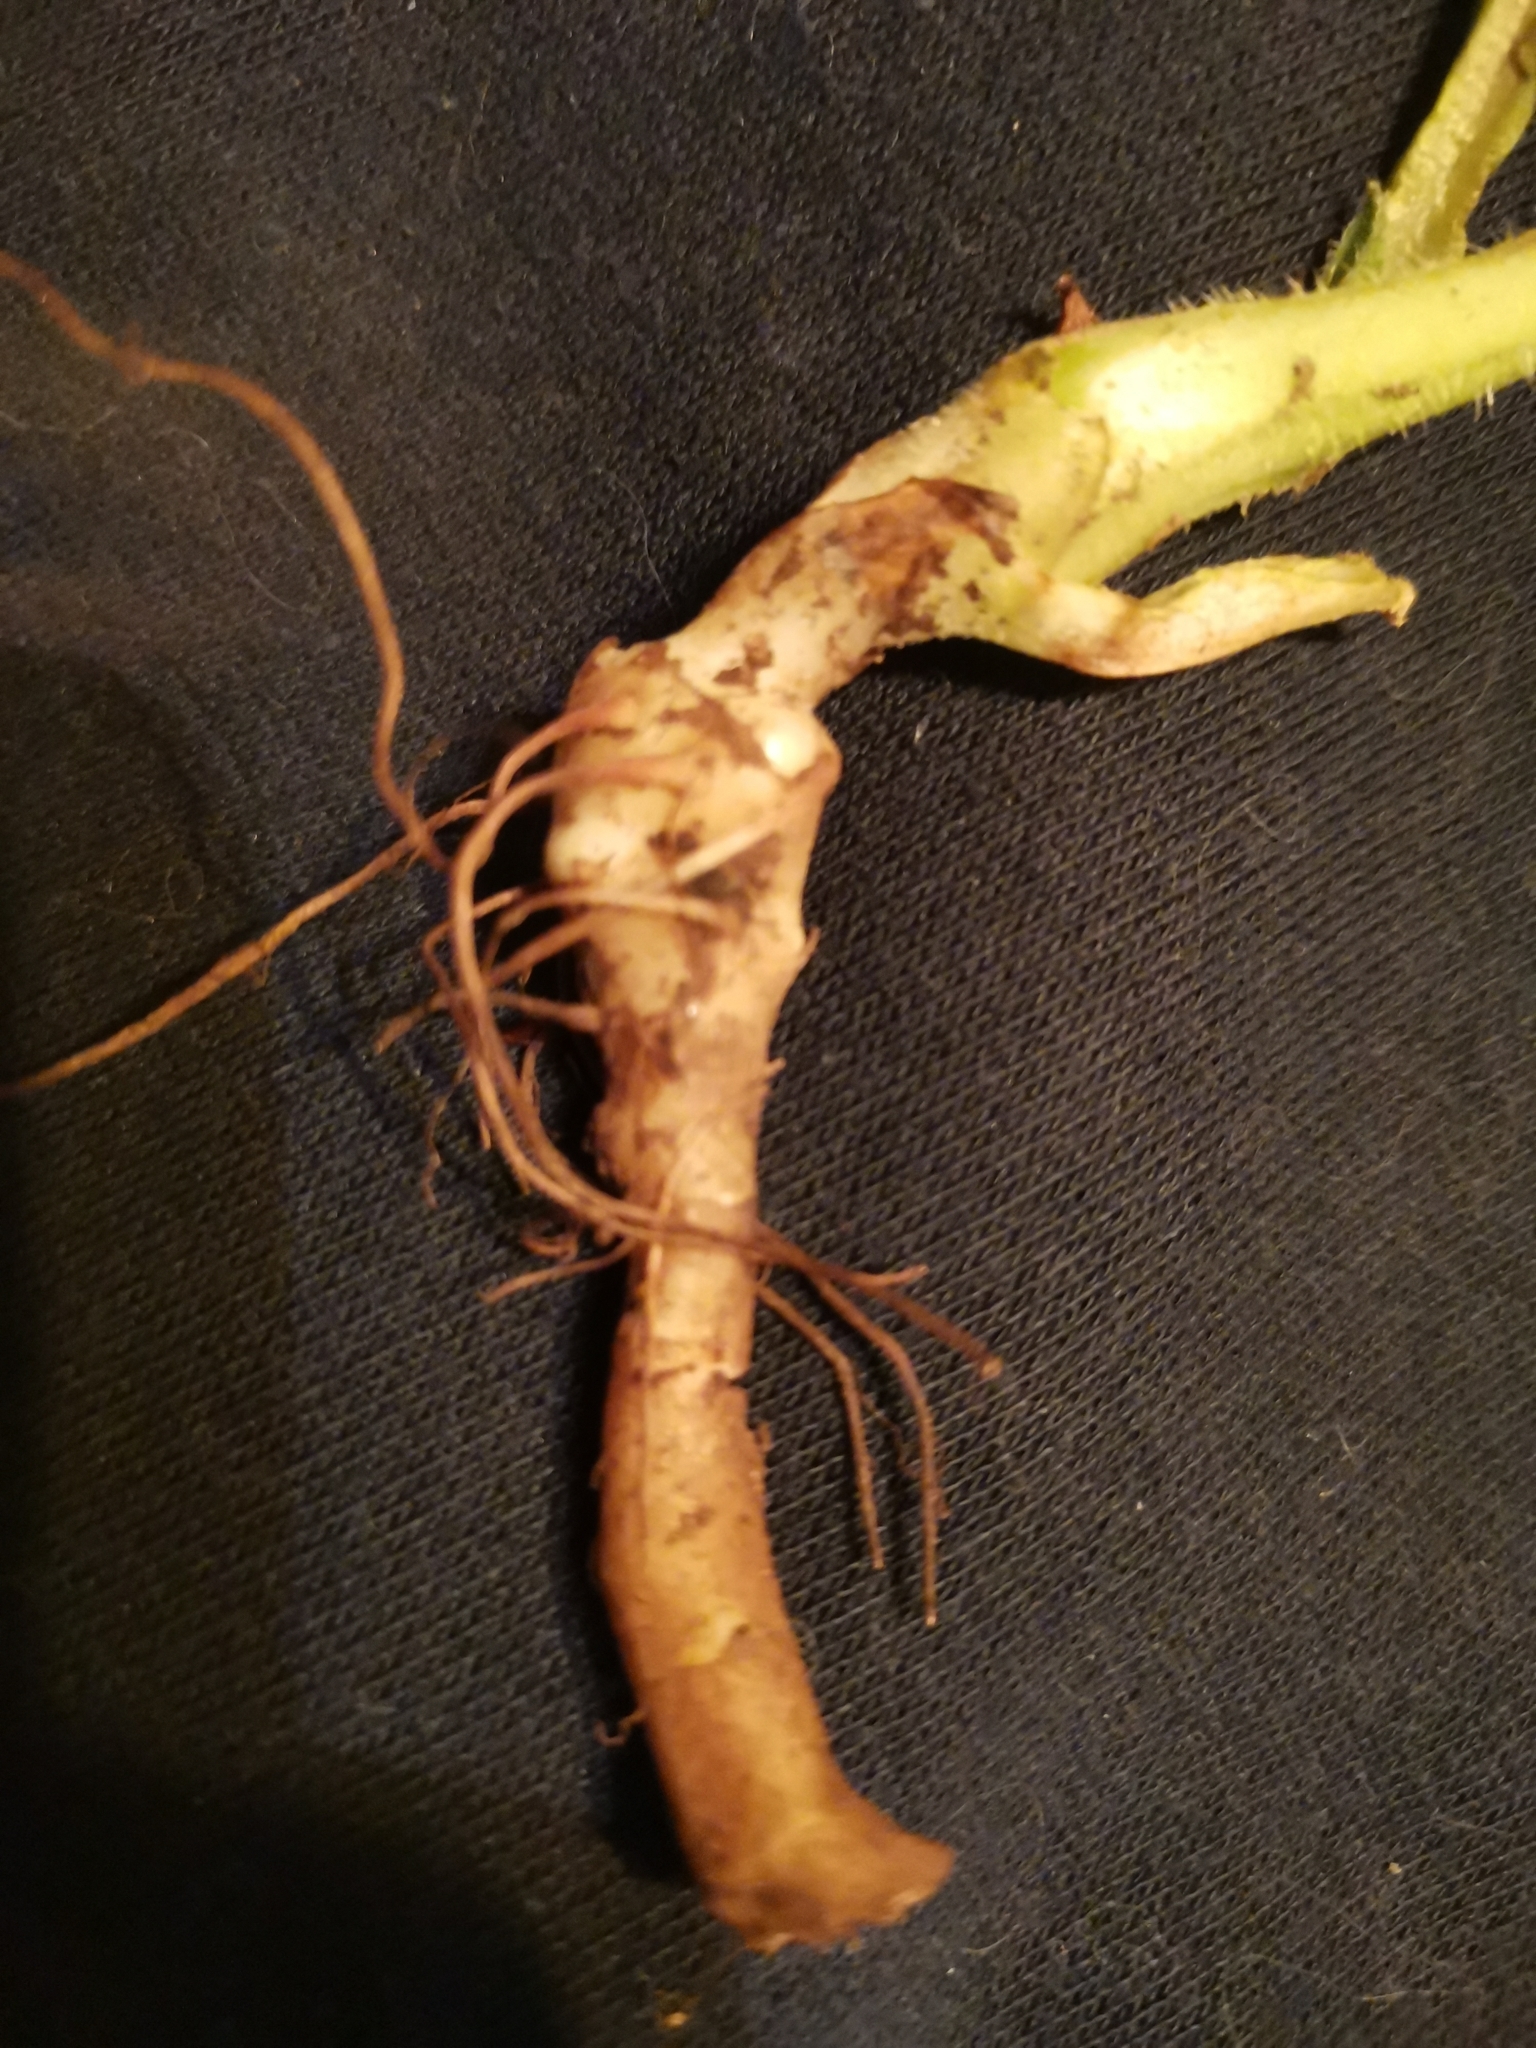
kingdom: Plantae
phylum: Tracheophyta
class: Magnoliopsida
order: Boraginales
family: Boraginaceae
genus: Symphytum
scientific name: Symphytum tuberosum
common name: Tuberous comfrey
